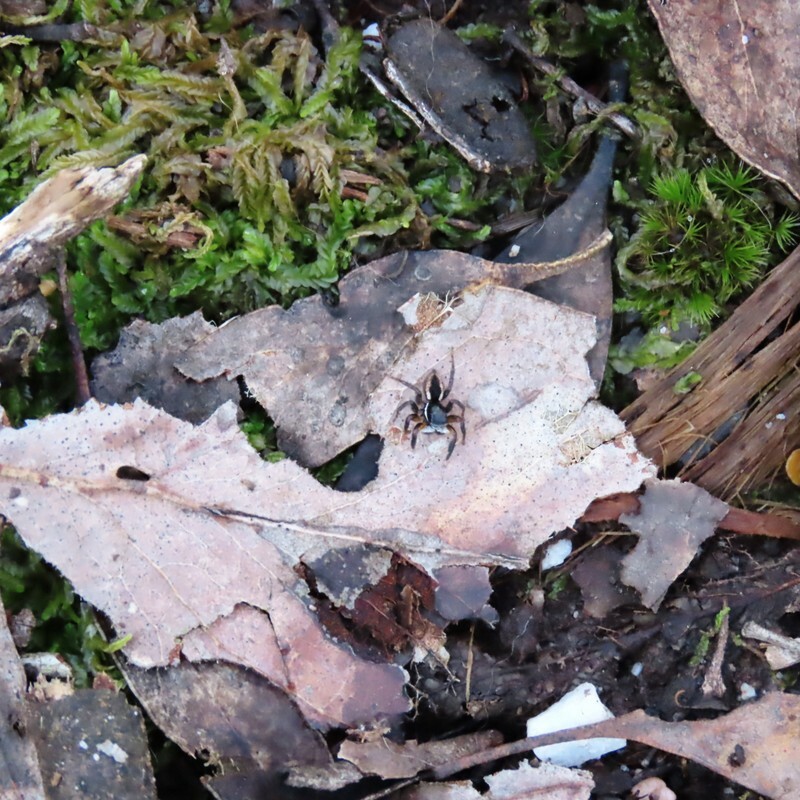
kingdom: Animalia
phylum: Arthropoda
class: Arachnida
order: Araneae
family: Salticidae
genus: Jotus
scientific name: Jotus auripes
